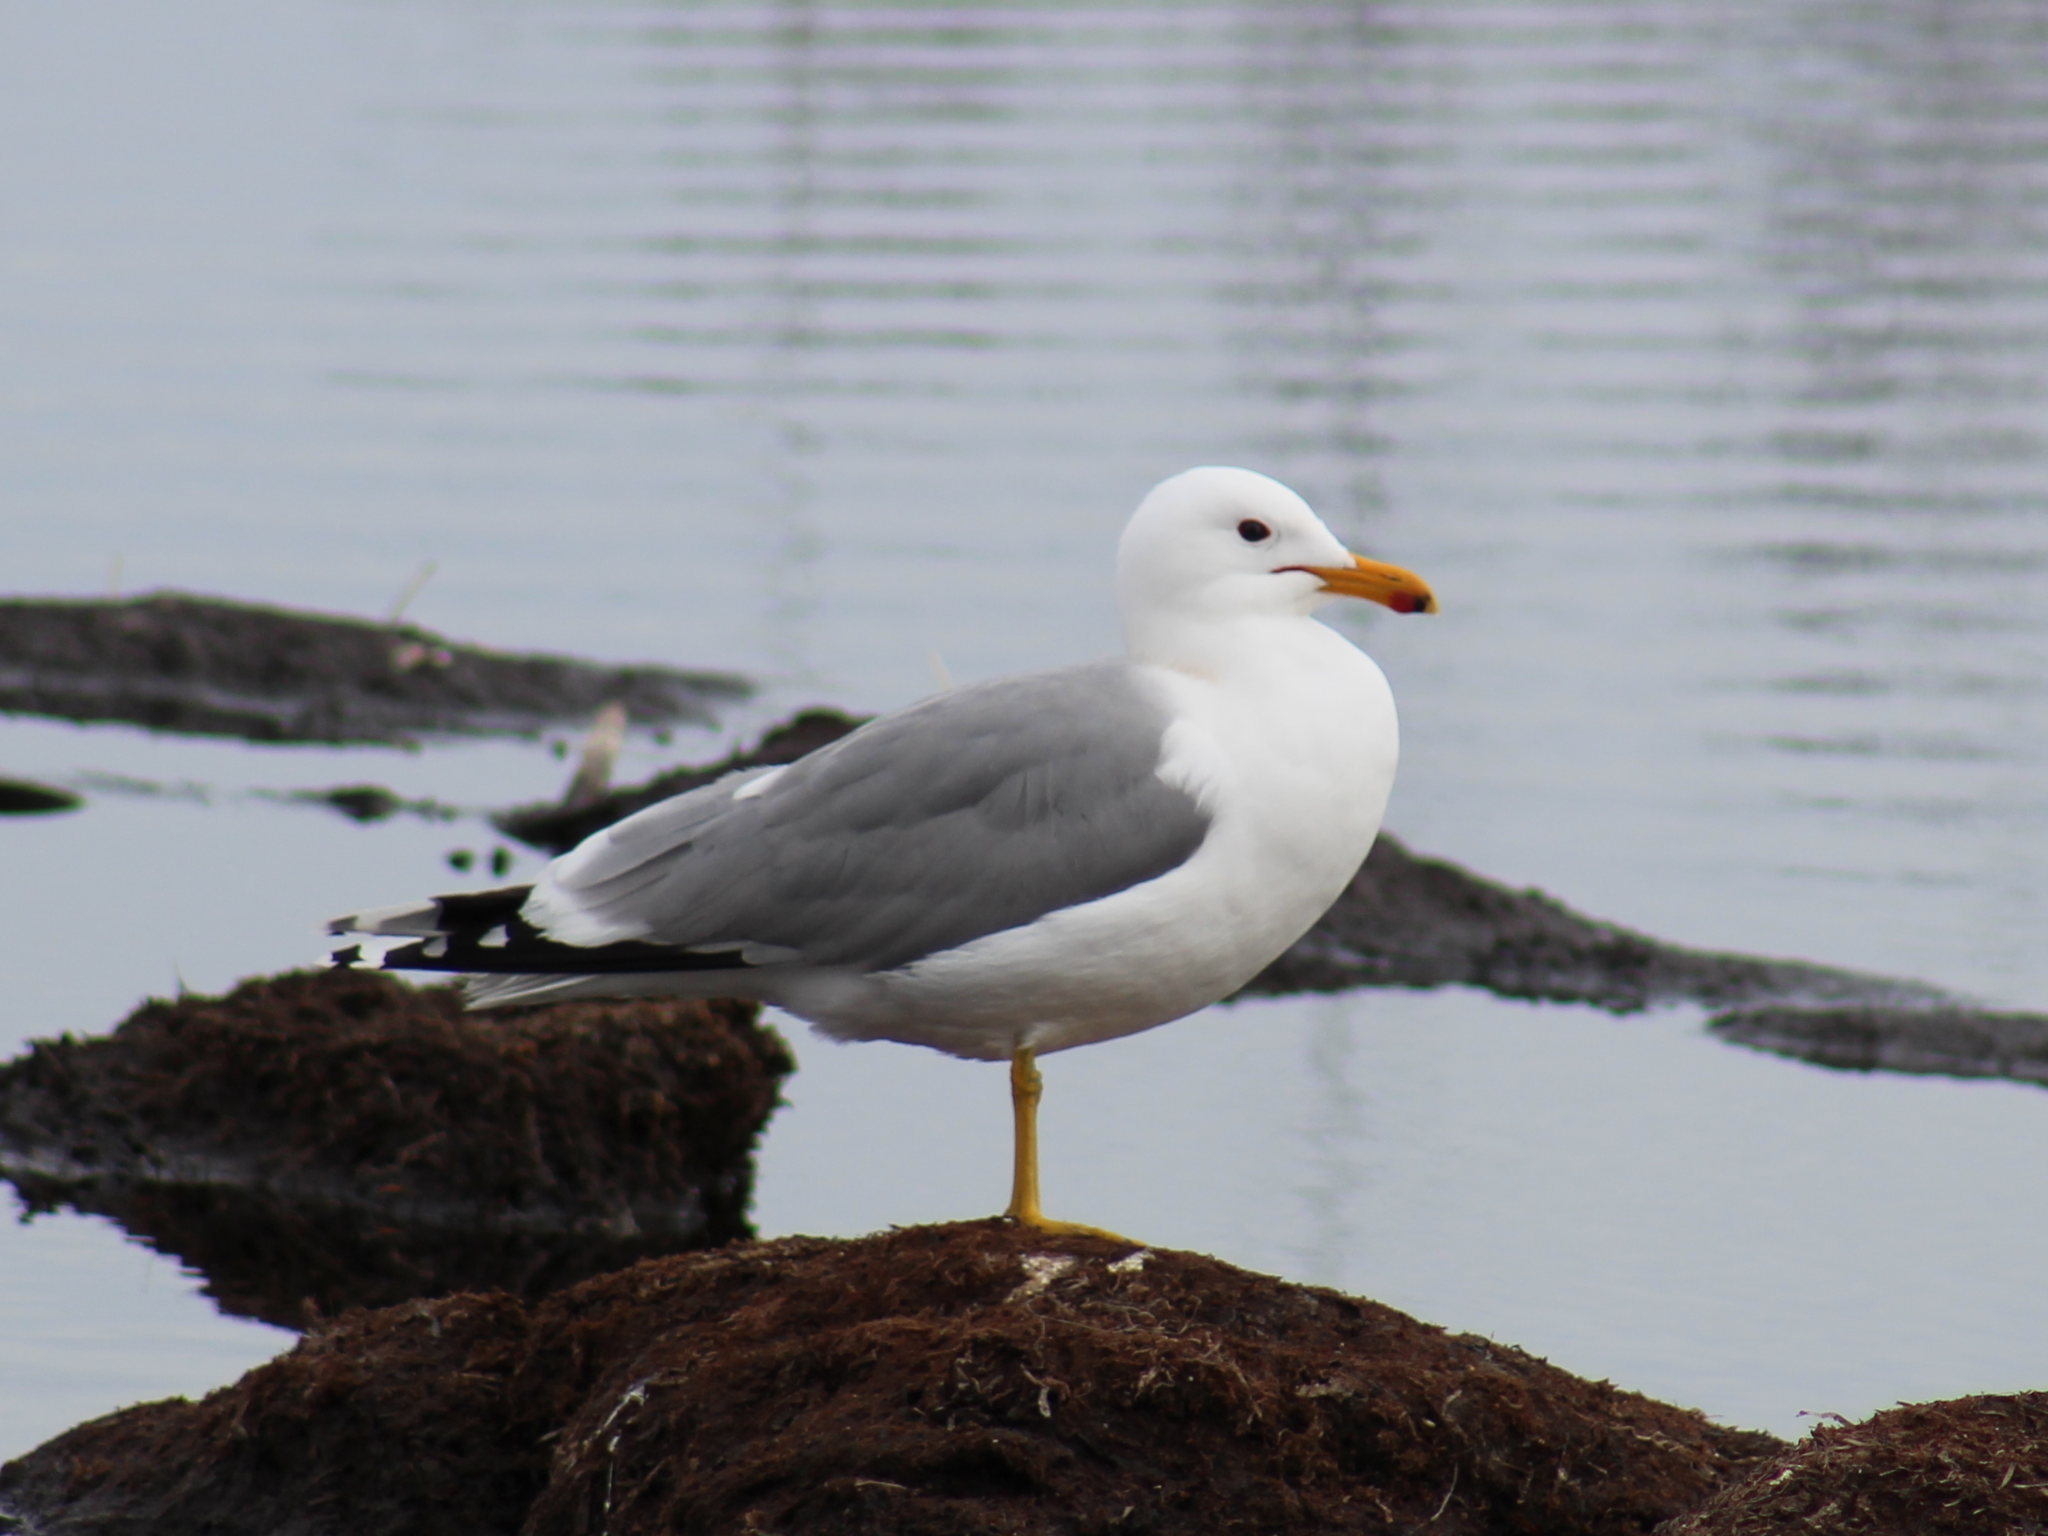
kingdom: Animalia
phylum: Chordata
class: Aves
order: Charadriiformes
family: Laridae
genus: Larus
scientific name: Larus californicus
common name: California gull
